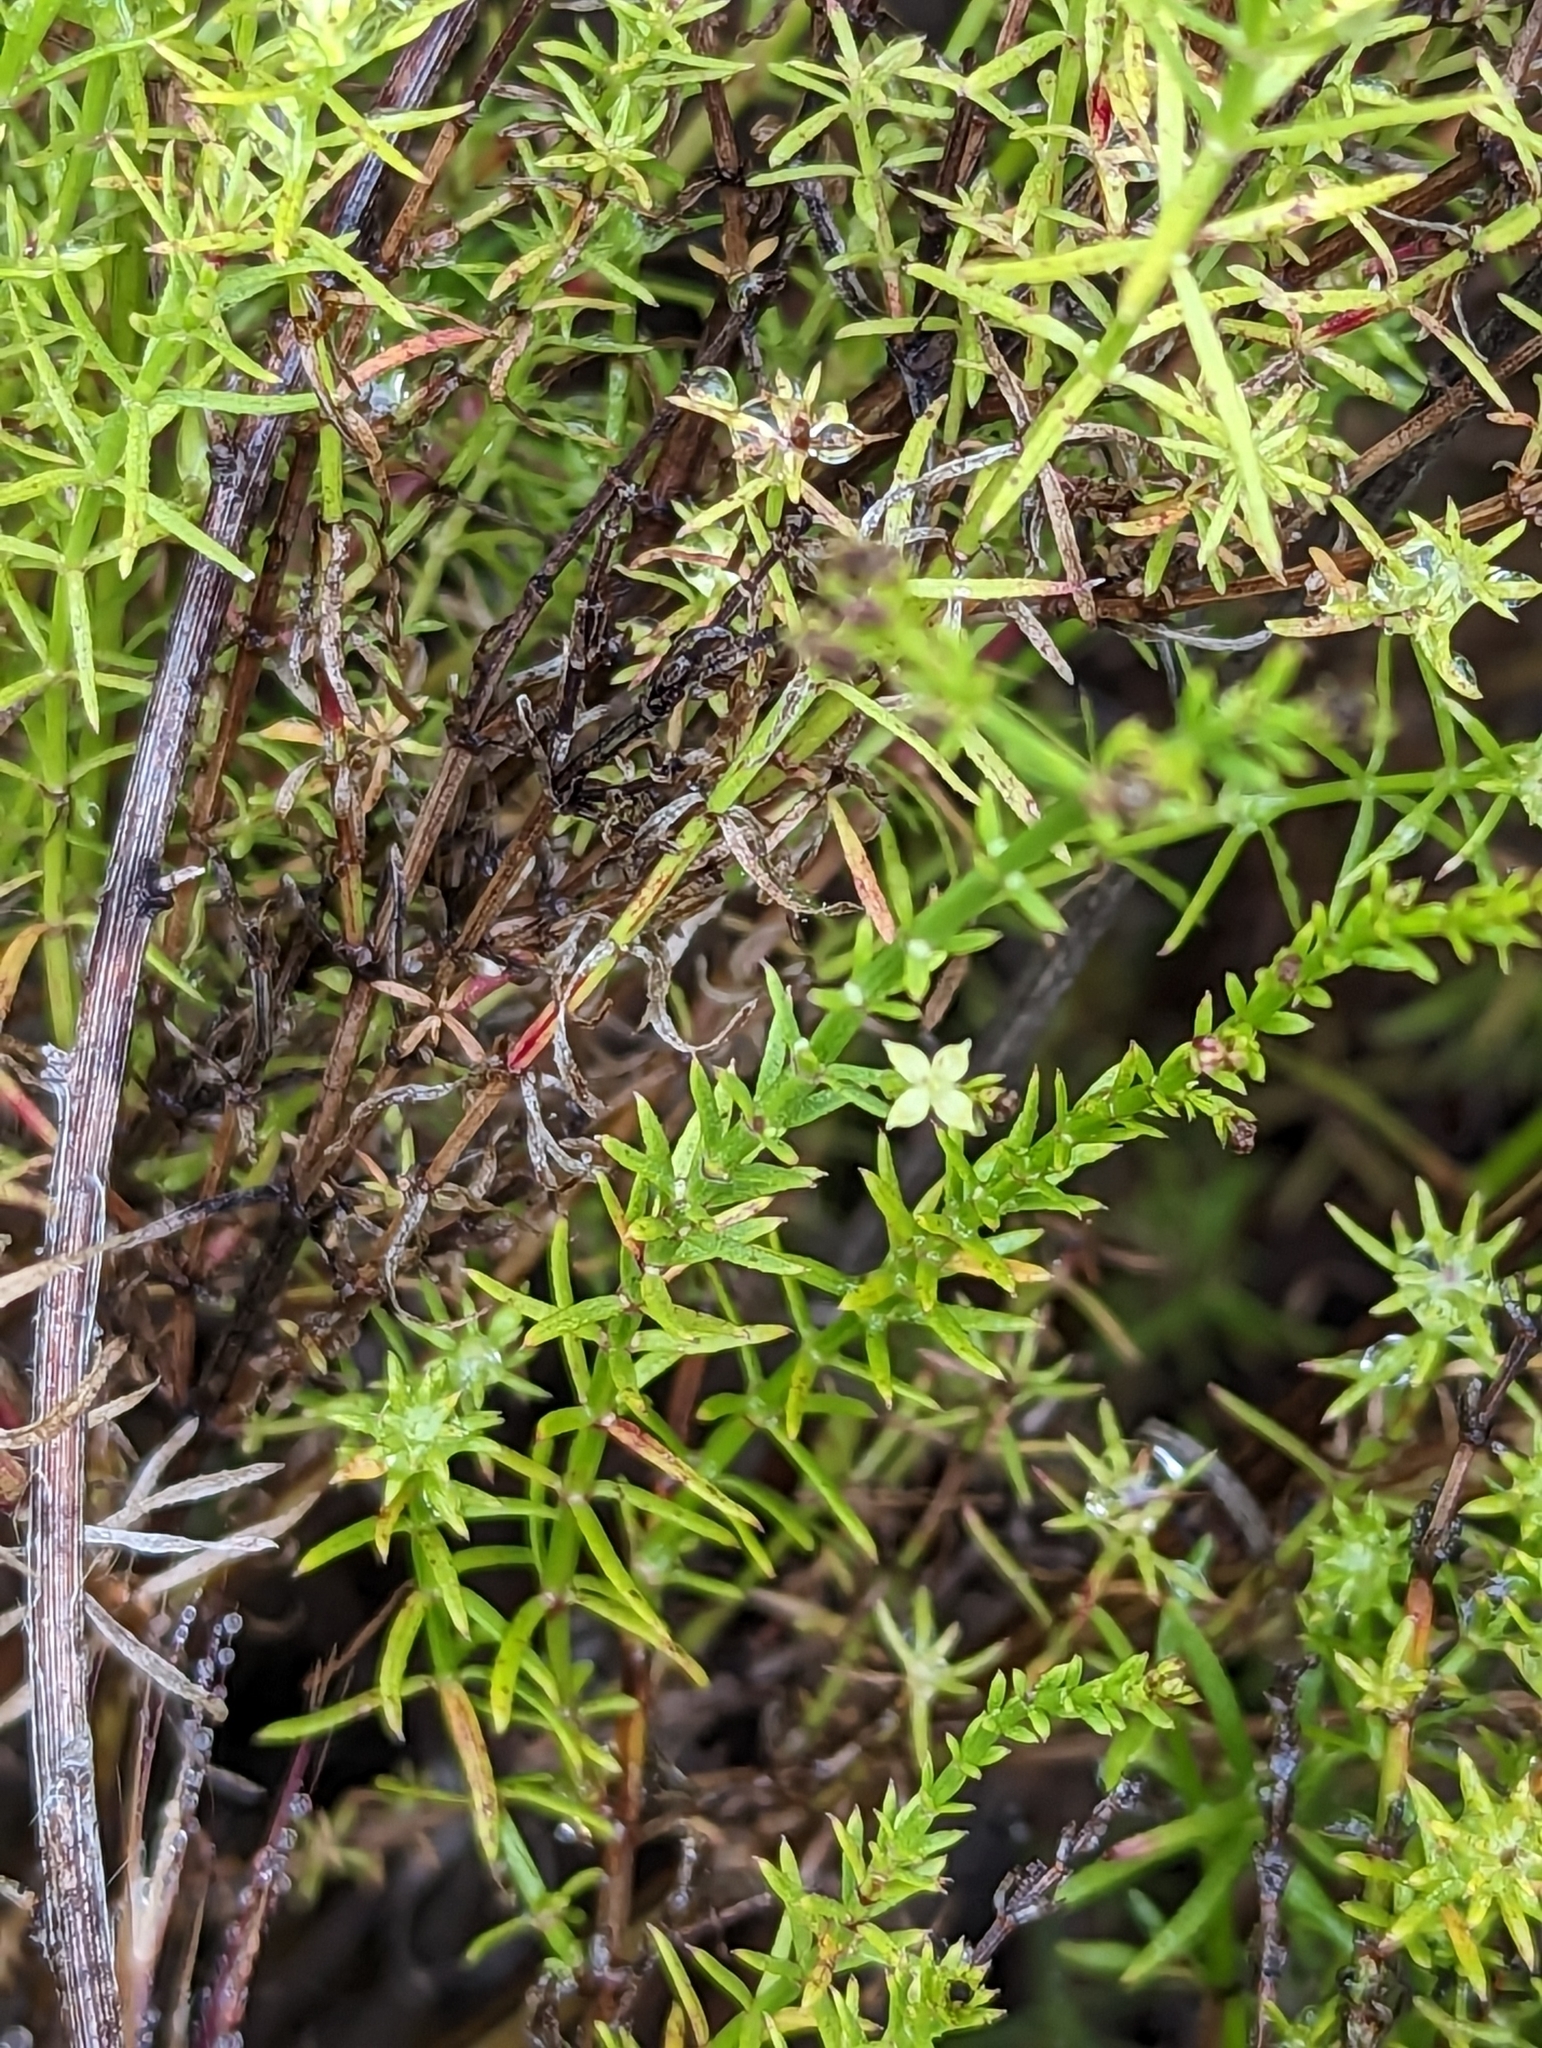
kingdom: Plantae
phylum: Tracheophyta
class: Magnoliopsida
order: Gentianales
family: Rubiaceae
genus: Galium
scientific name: Galium angustifolium
